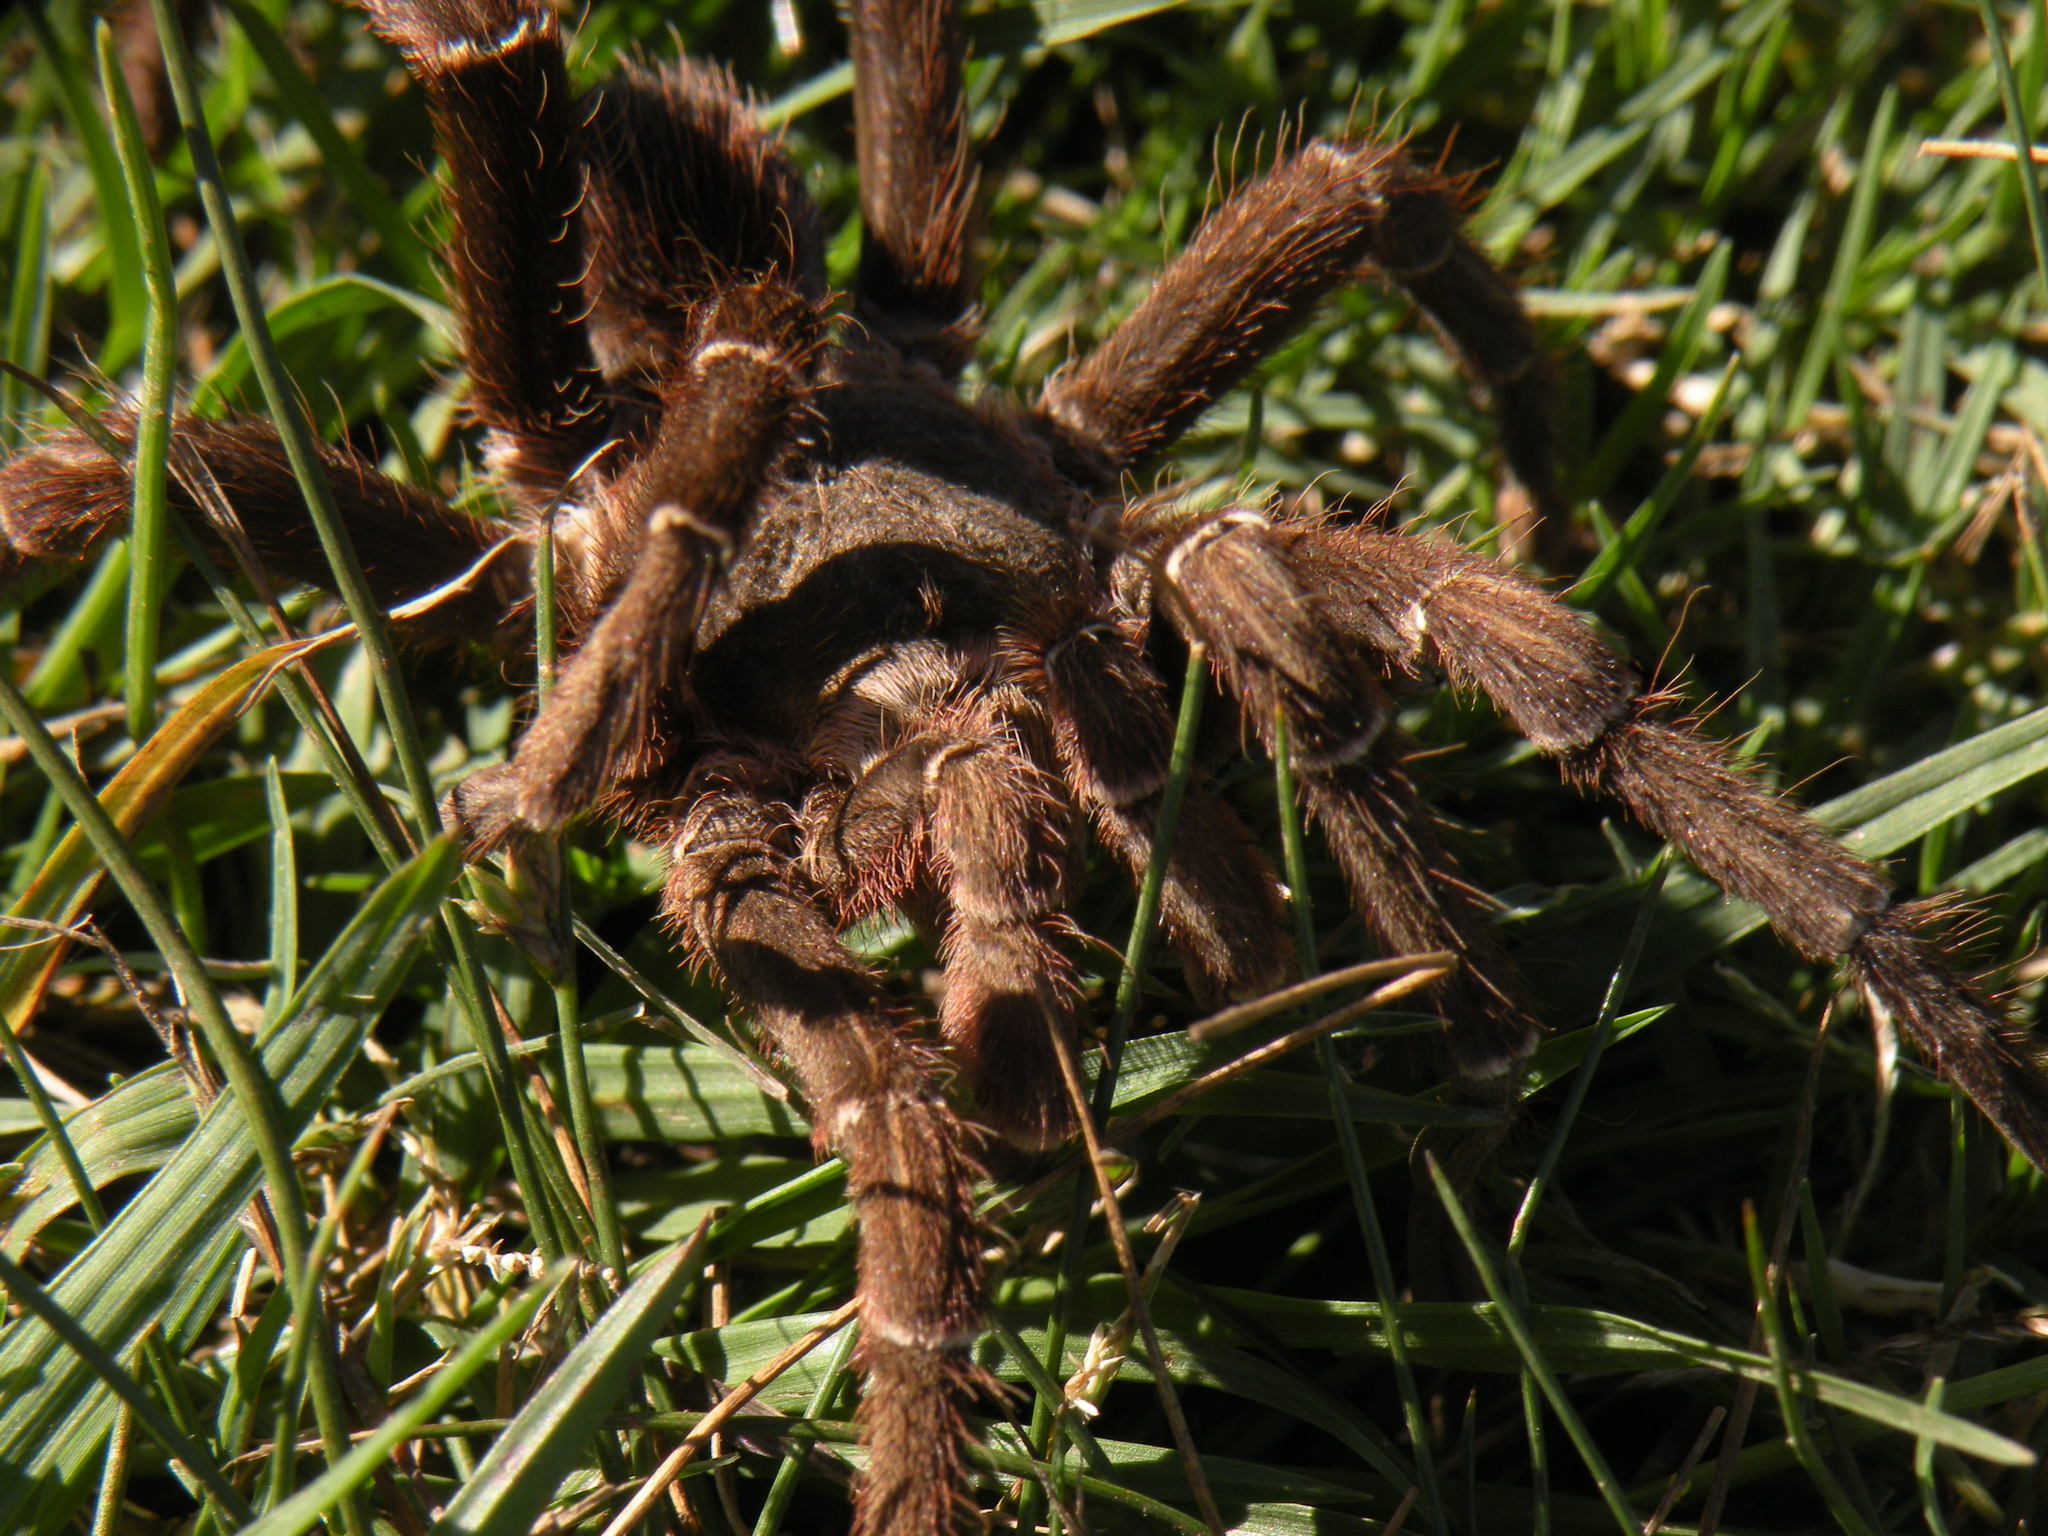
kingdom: Animalia
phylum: Arthropoda
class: Arachnida
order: Araneae
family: Theraphosidae
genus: Eupalaestrus
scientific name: Eupalaestrus weijenberghi
